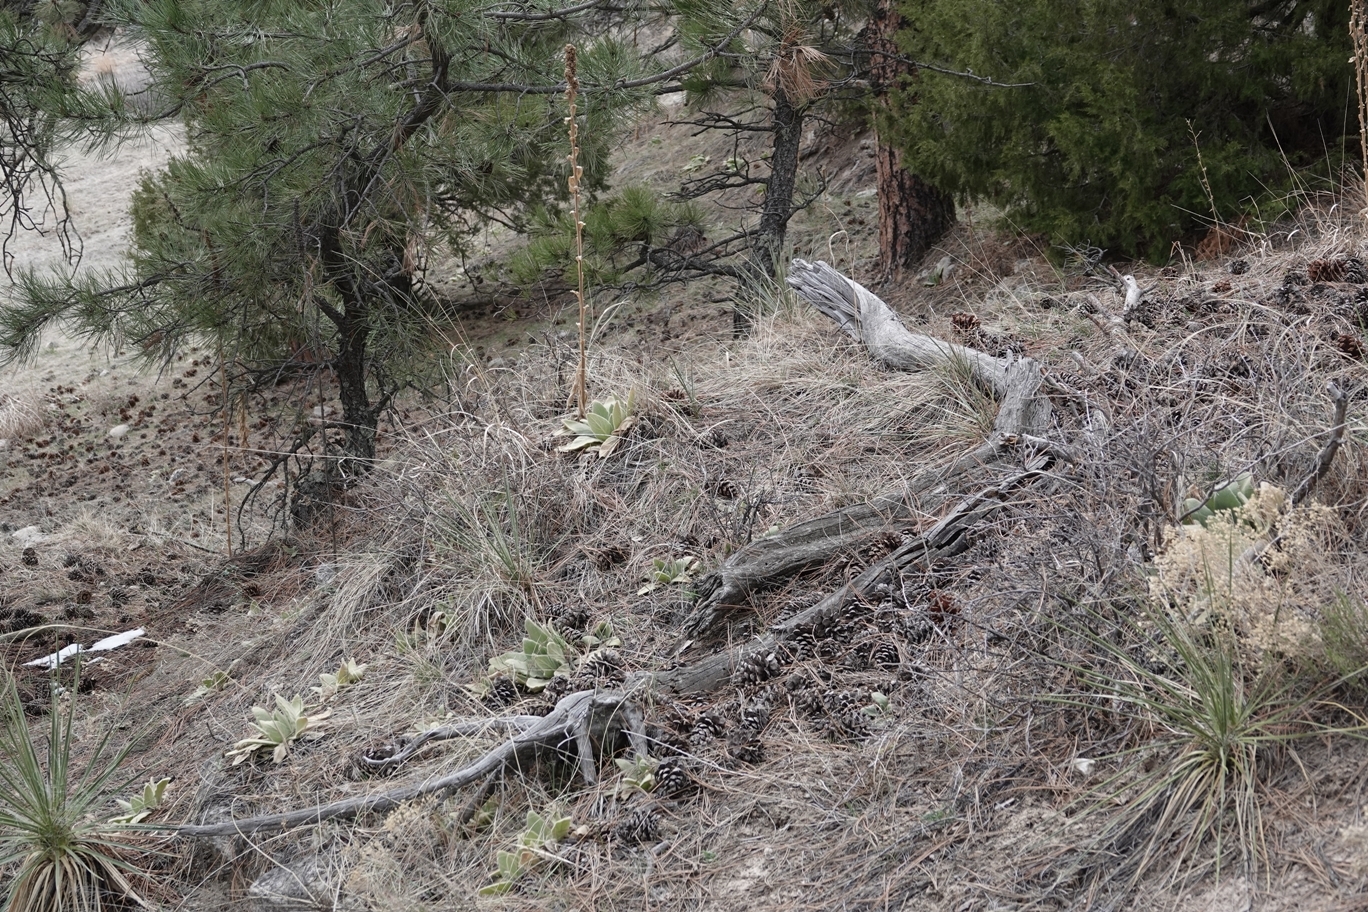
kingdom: Plantae
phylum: Tracheophyta
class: Magnoliopsida
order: Lamiales
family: Scrophulariaceae
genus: Verbascum
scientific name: Verbascum thapsus
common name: Common mullein
